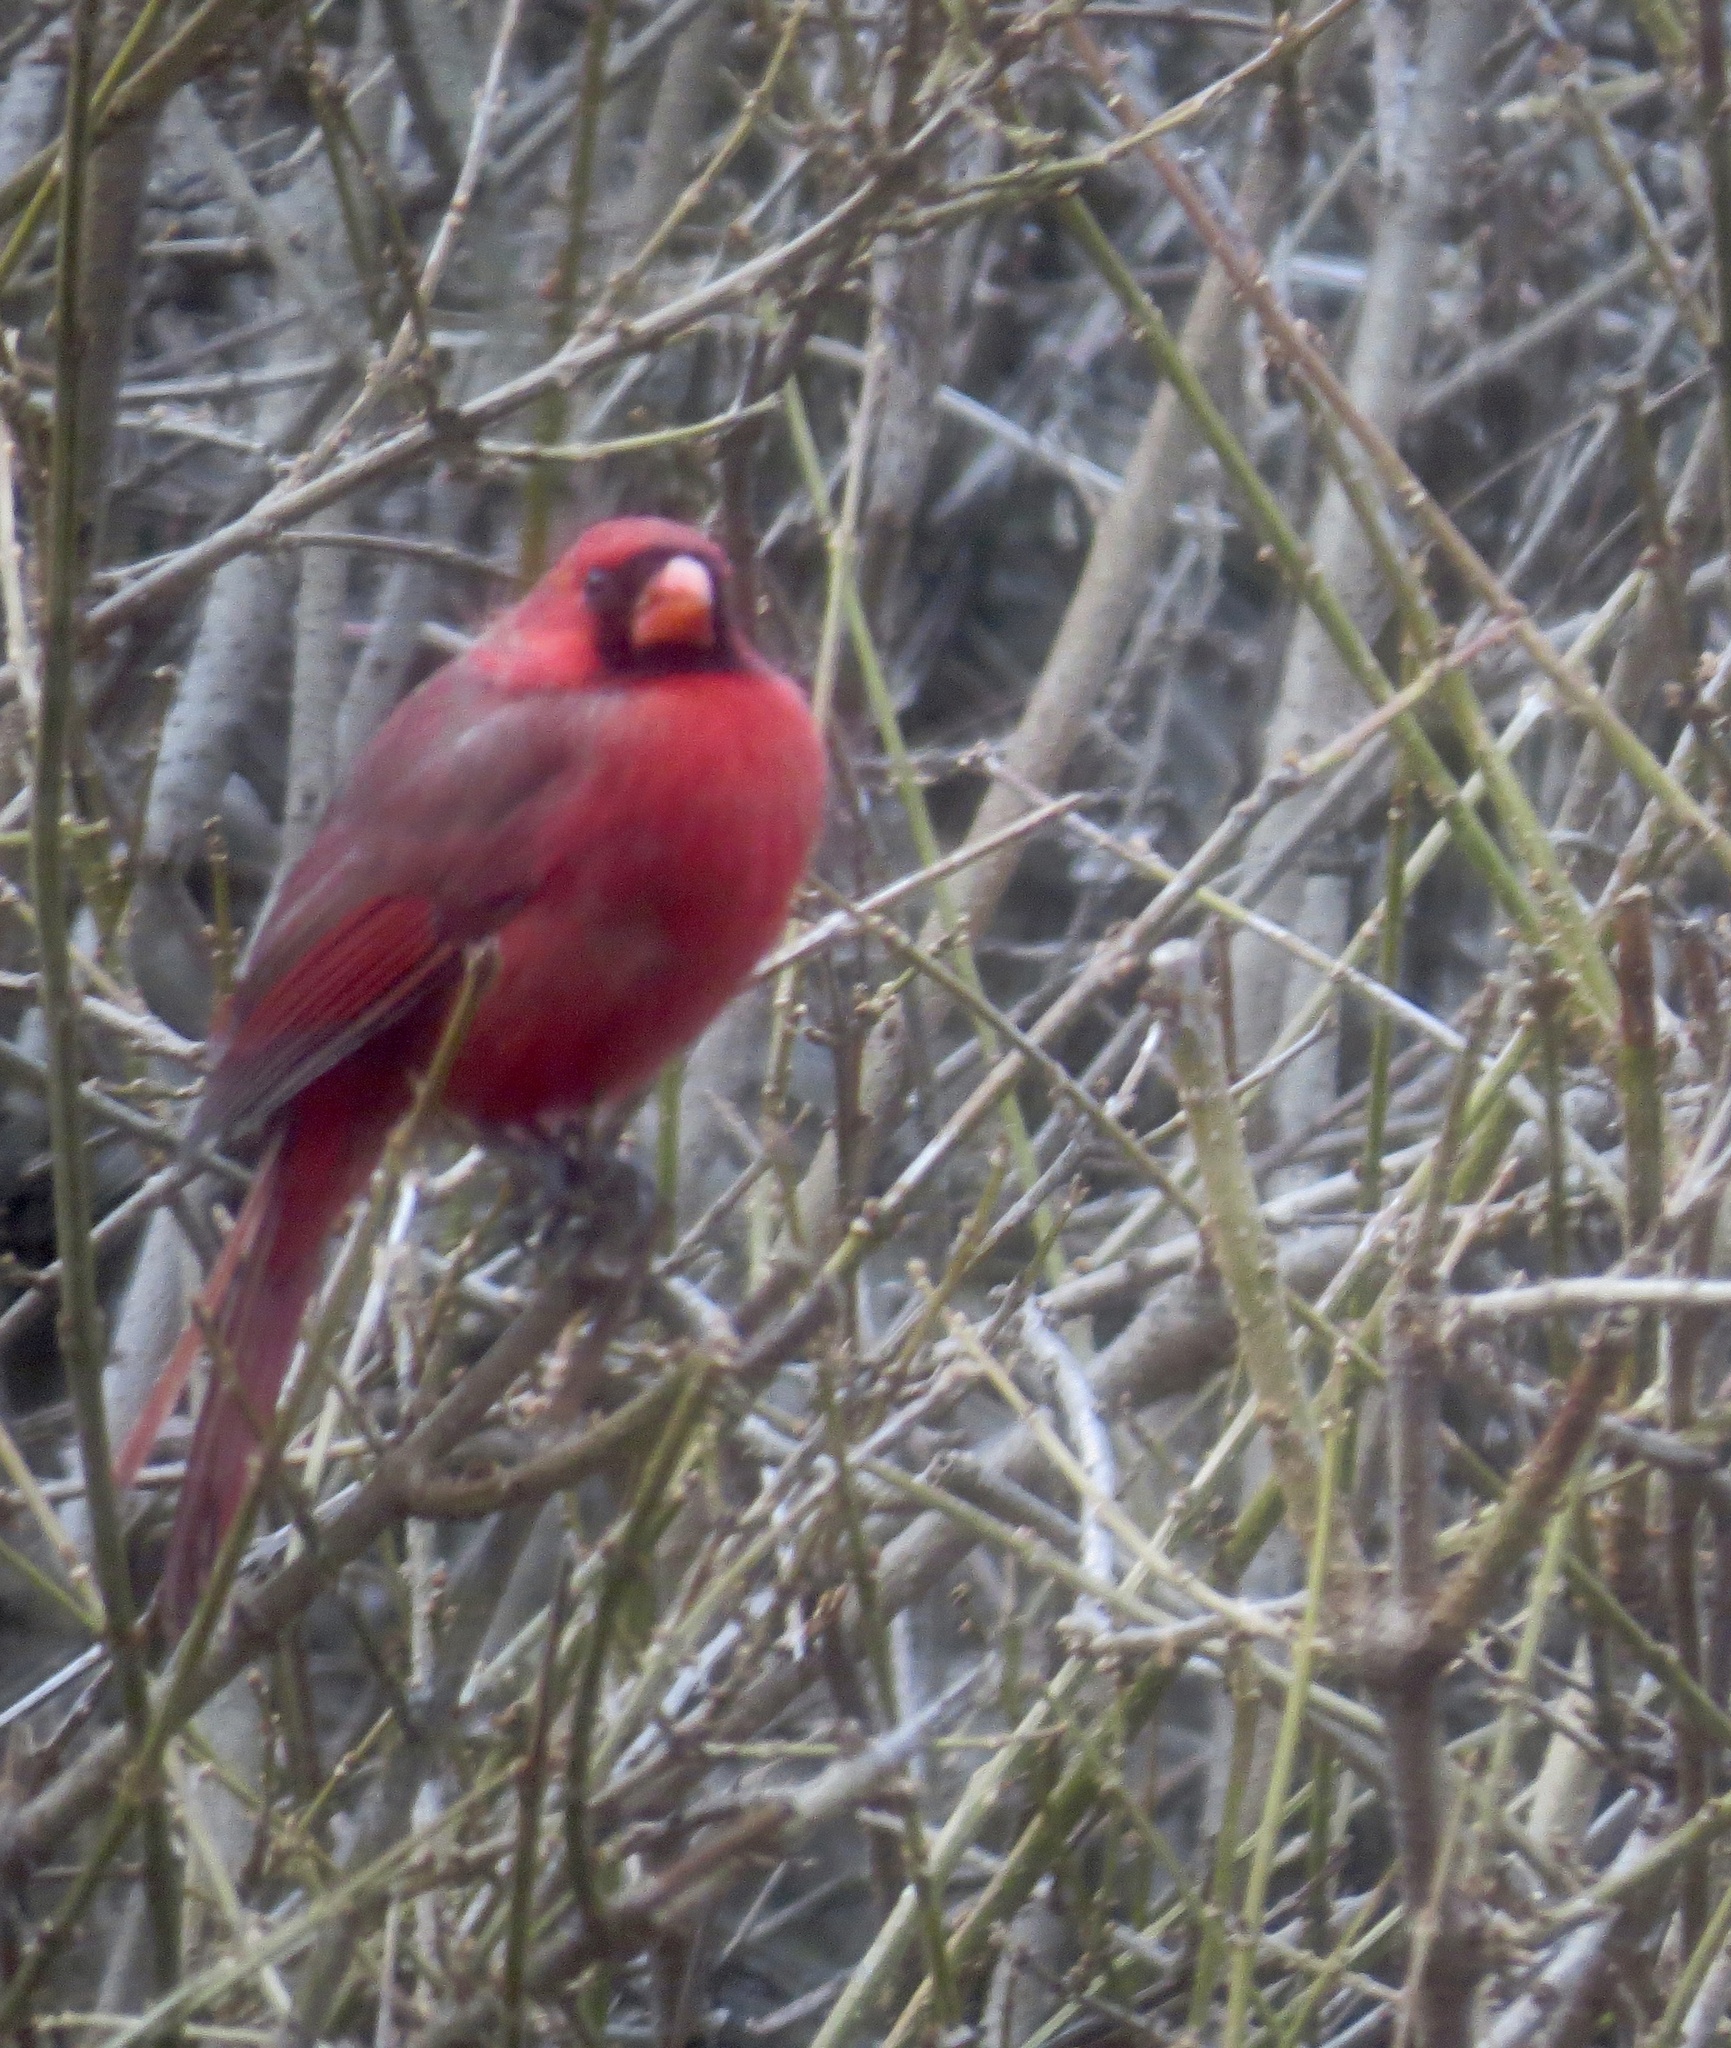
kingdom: Animalia
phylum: Chordata
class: Aves
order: Passeriformes
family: Cardinalidae
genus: Cardinalis
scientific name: Cardinalis cardinalis
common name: Northern cardinal
